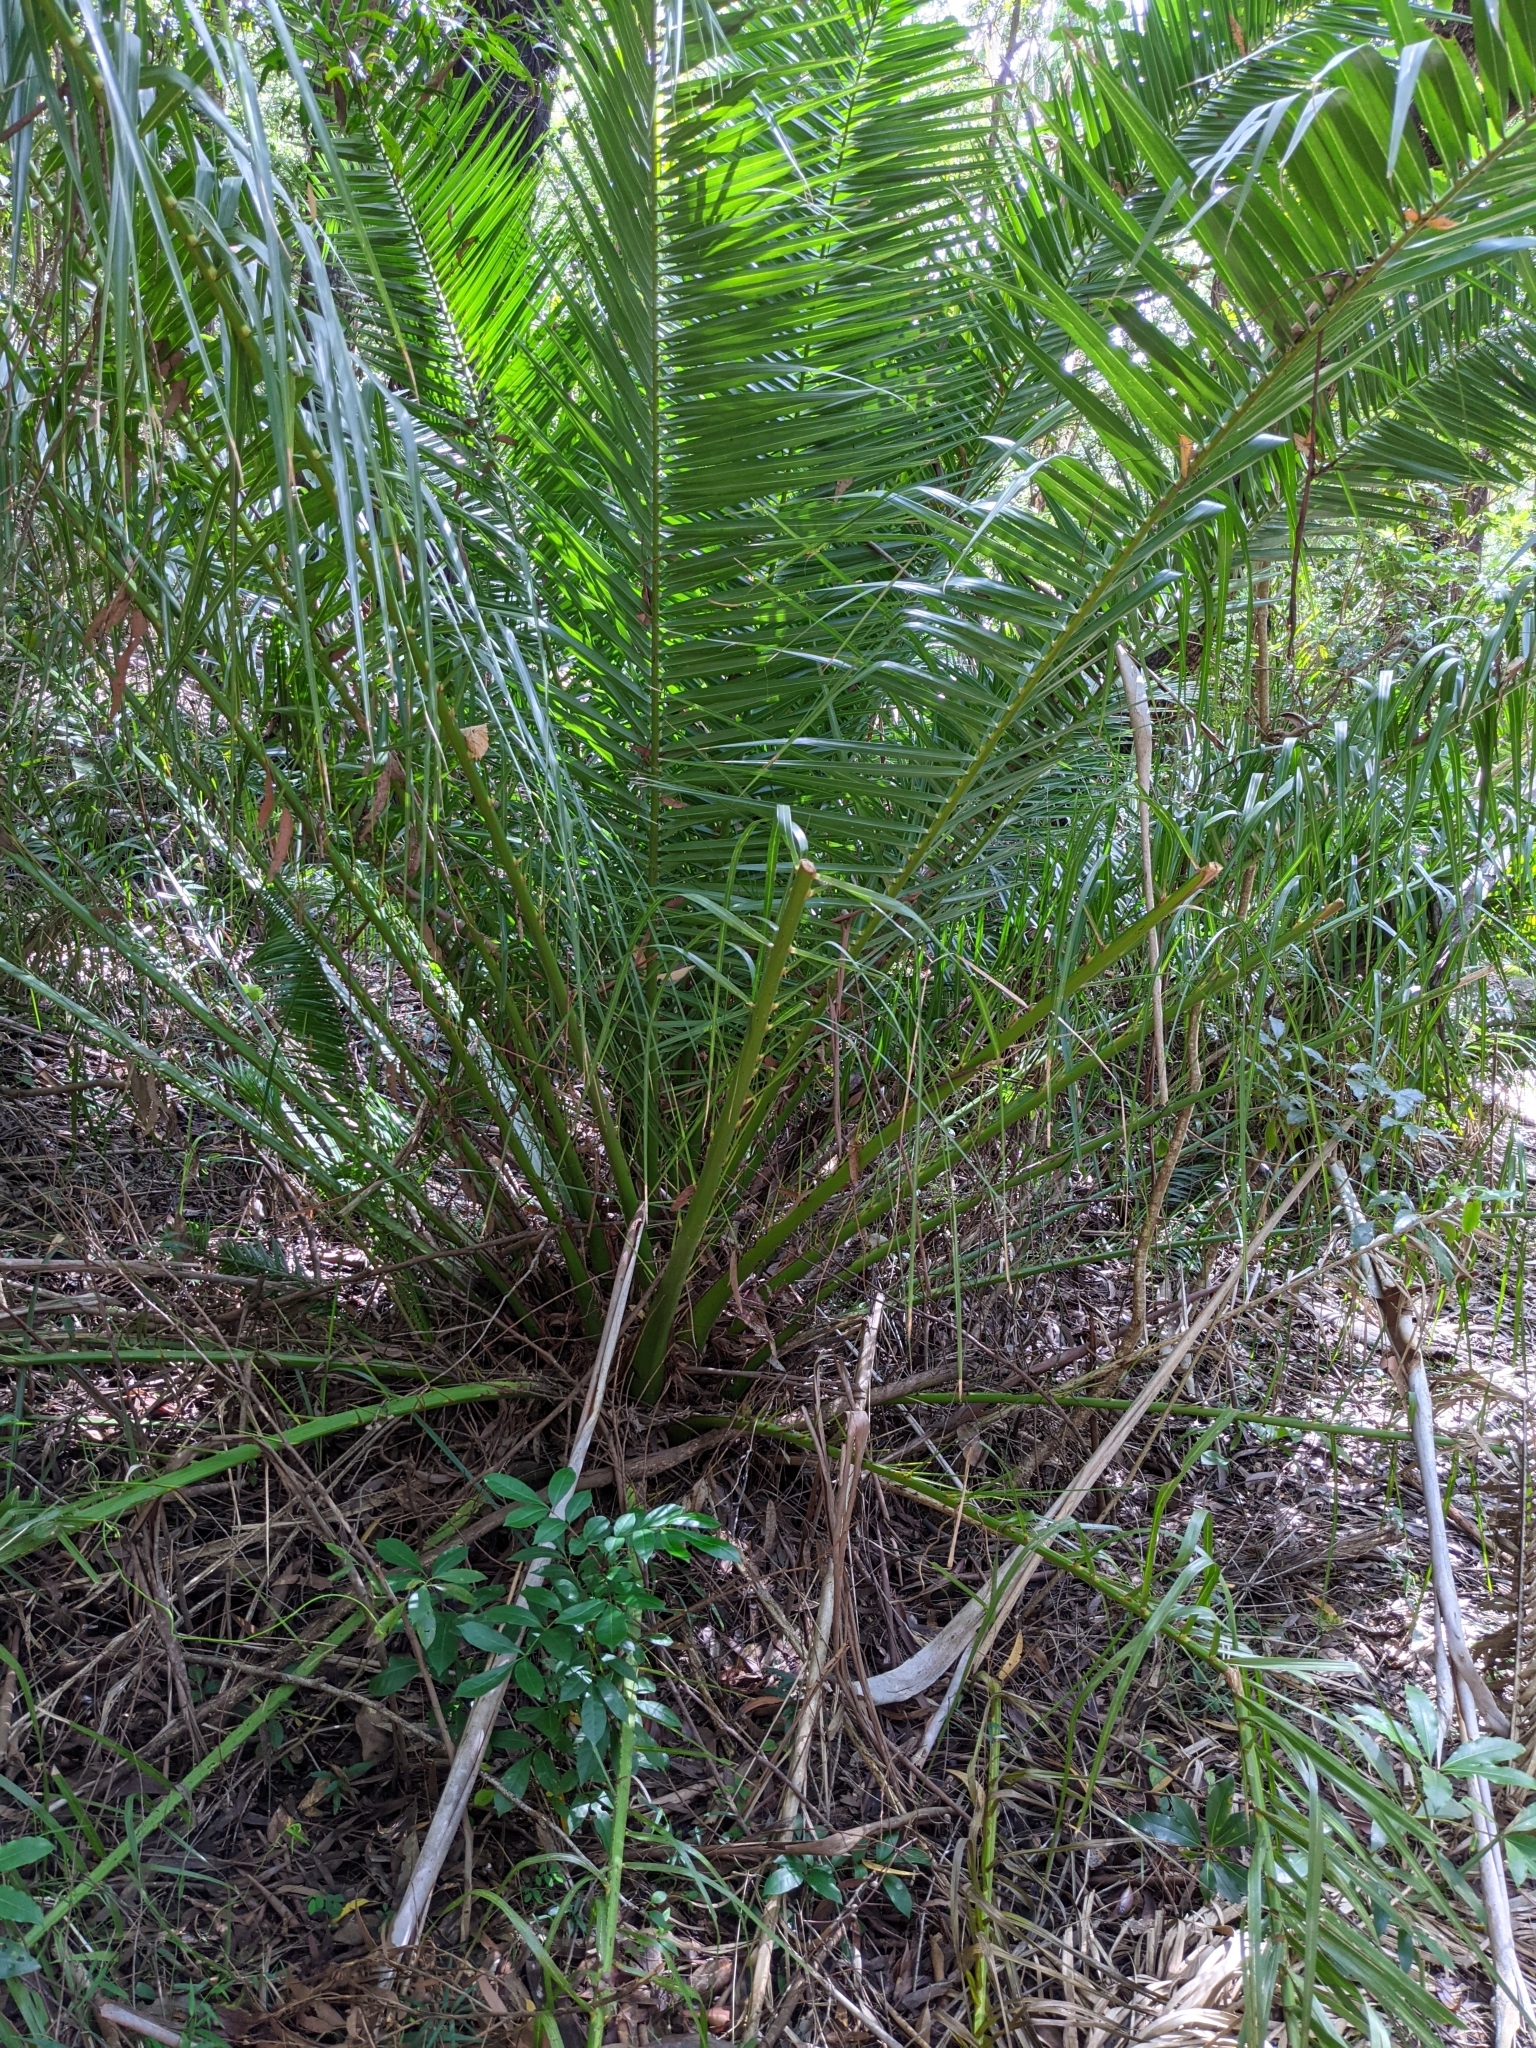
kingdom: Plantae
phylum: Tracheophyta
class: Liliopsida
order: Arecales
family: Arecaceae
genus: Phoenix
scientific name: Phoenix canariensis
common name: Canary island date palm
